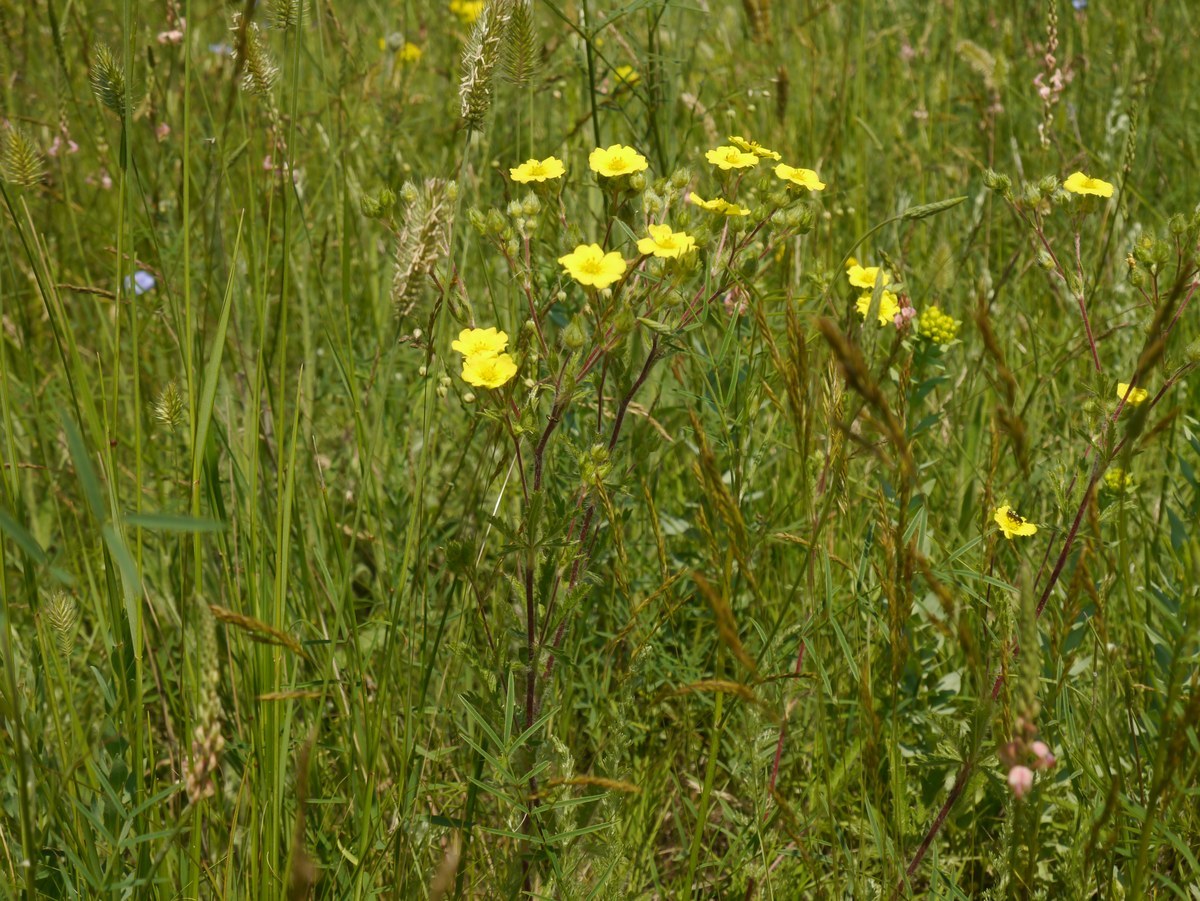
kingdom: Plantae
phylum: Tracheophyta
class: Magnoliopsida
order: Rosales
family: Rosaceae
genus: Potentilla
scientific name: Potentilla recta
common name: Sulphur cinquefoil
